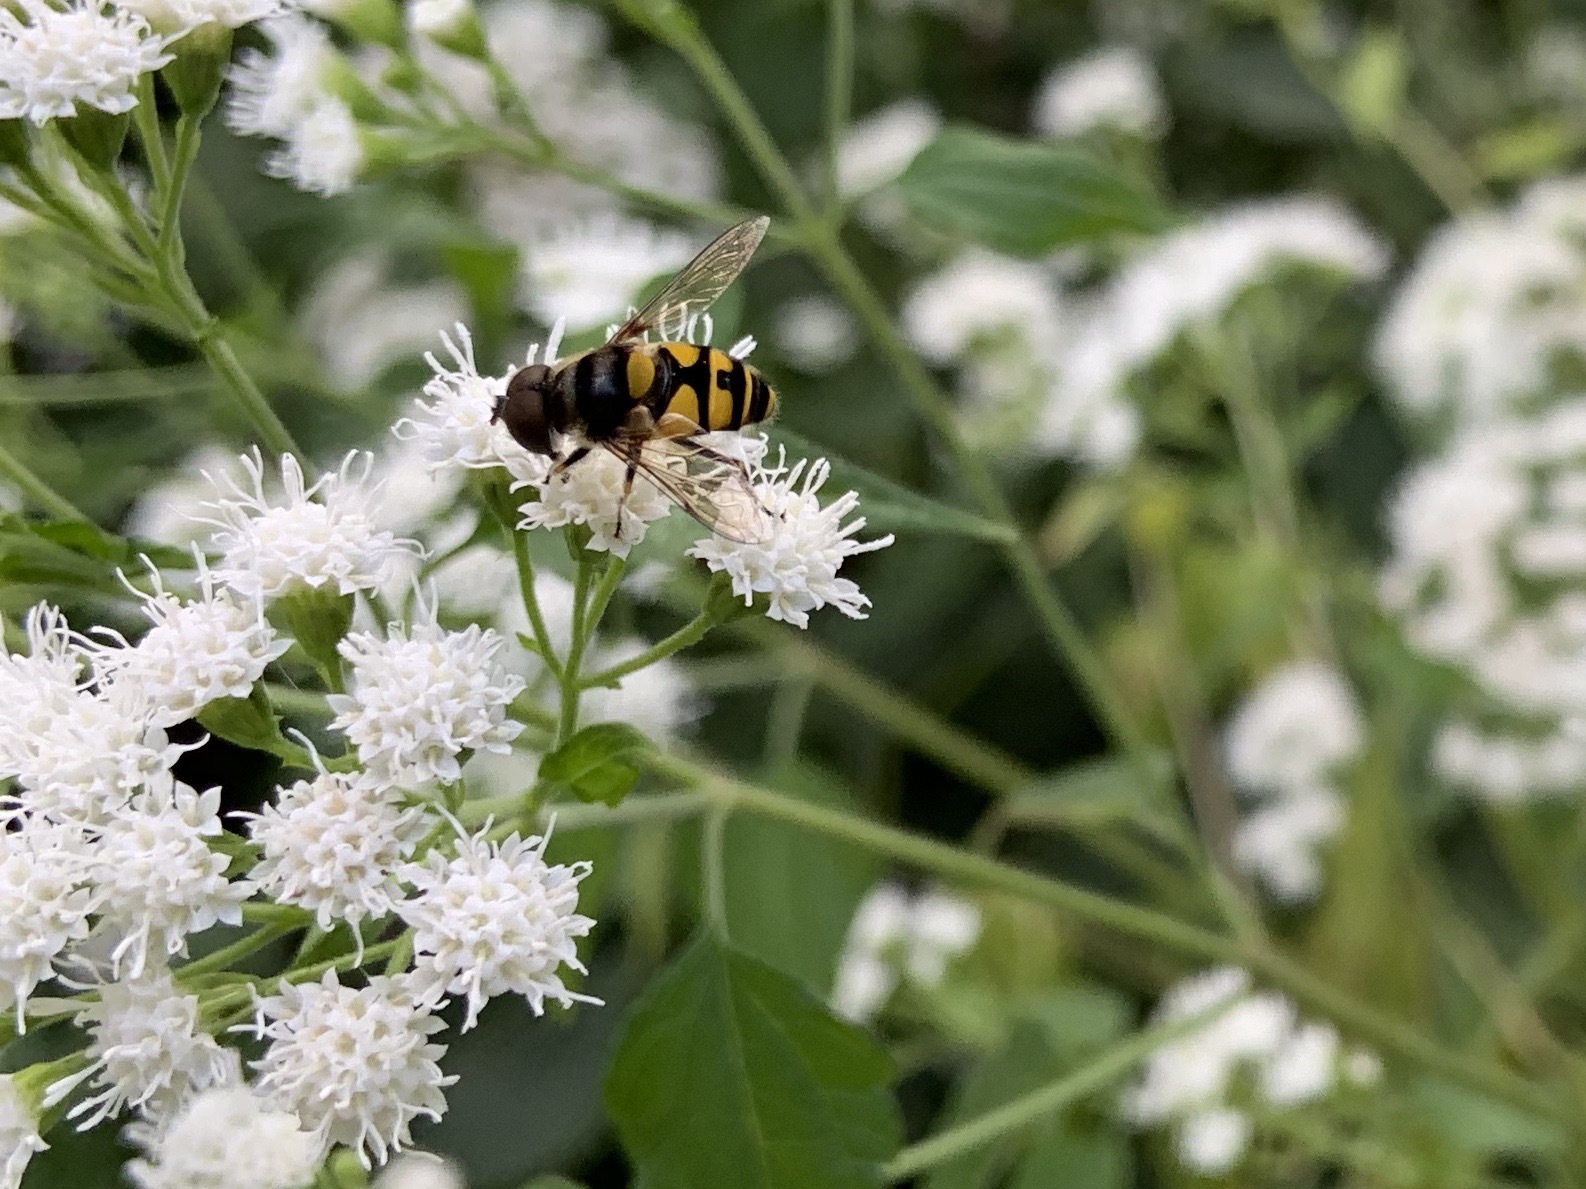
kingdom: Animalia
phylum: Arthropoda
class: Insecta
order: Diptera
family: Syrphidae
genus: Eristalis
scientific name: Eristalis transversa
